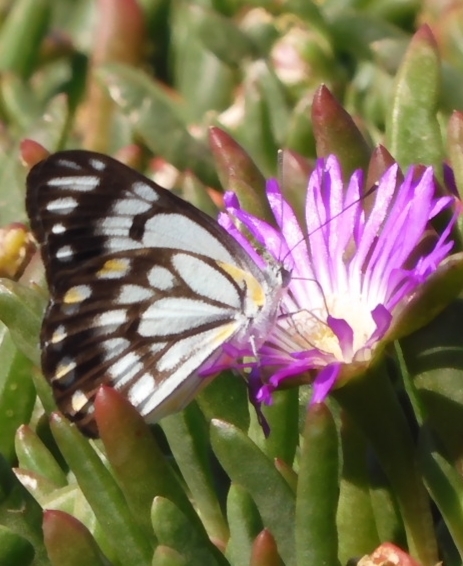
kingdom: Animalia
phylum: Arthropoda
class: Insecta
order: Lepidoptera
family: Pieridae
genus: Belenois
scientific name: Belenois java
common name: Caper white
